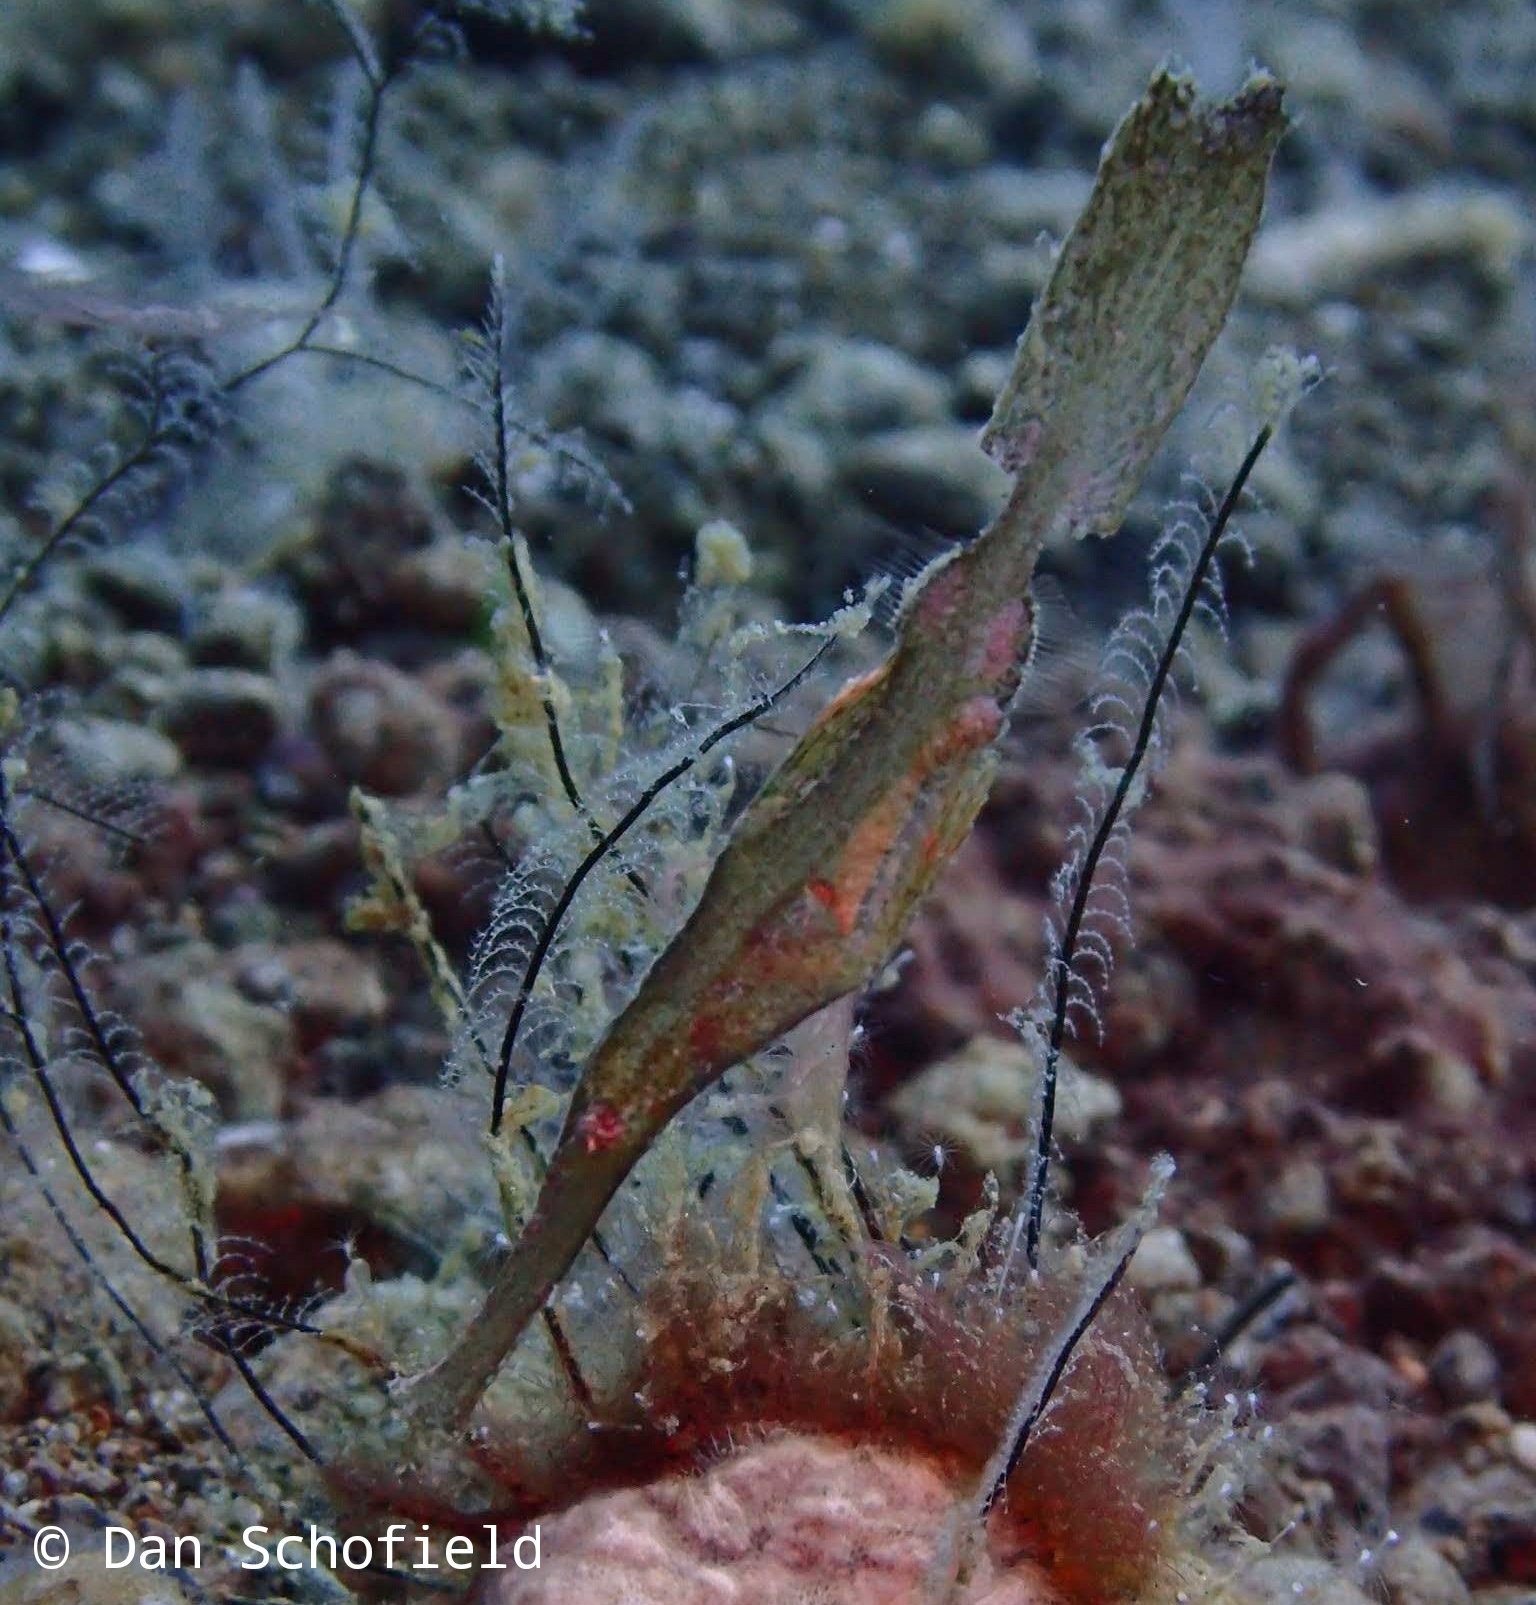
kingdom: Animalia
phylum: Chordata
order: Syngnathiformes
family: Solenostomidae
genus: Solenostomus
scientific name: Solenostomus cyanopterus
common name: Blue-finned ghost pipefish
